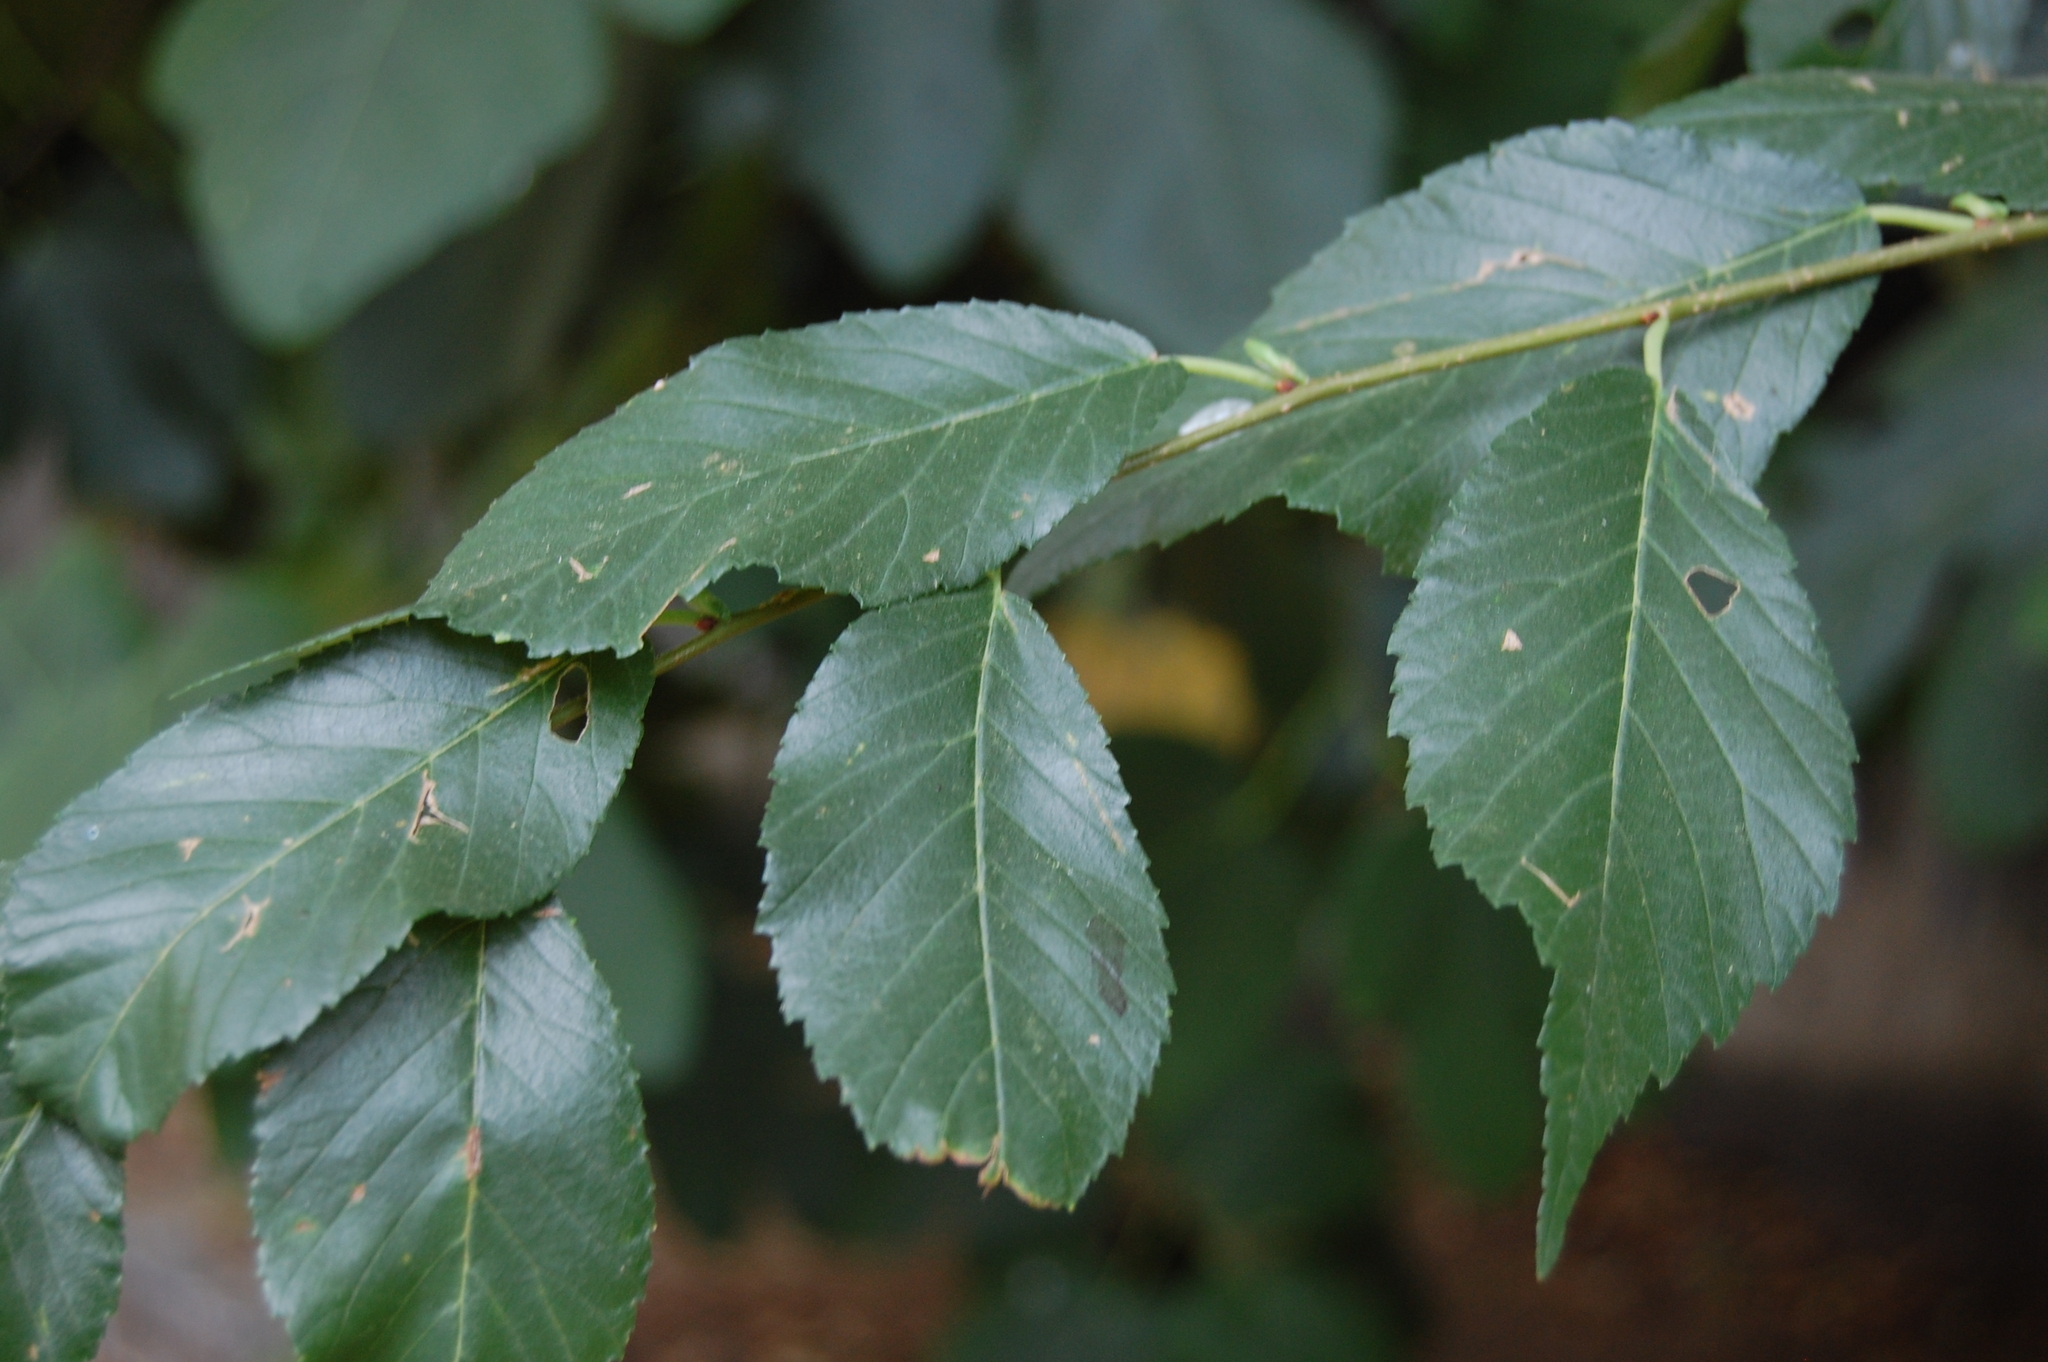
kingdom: Plantae
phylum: Tracheophyta
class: Magnoliopsida
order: Rosales
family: Ulmaceae
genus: Ulmus
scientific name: Ulmus minor
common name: Small-leaved elm
